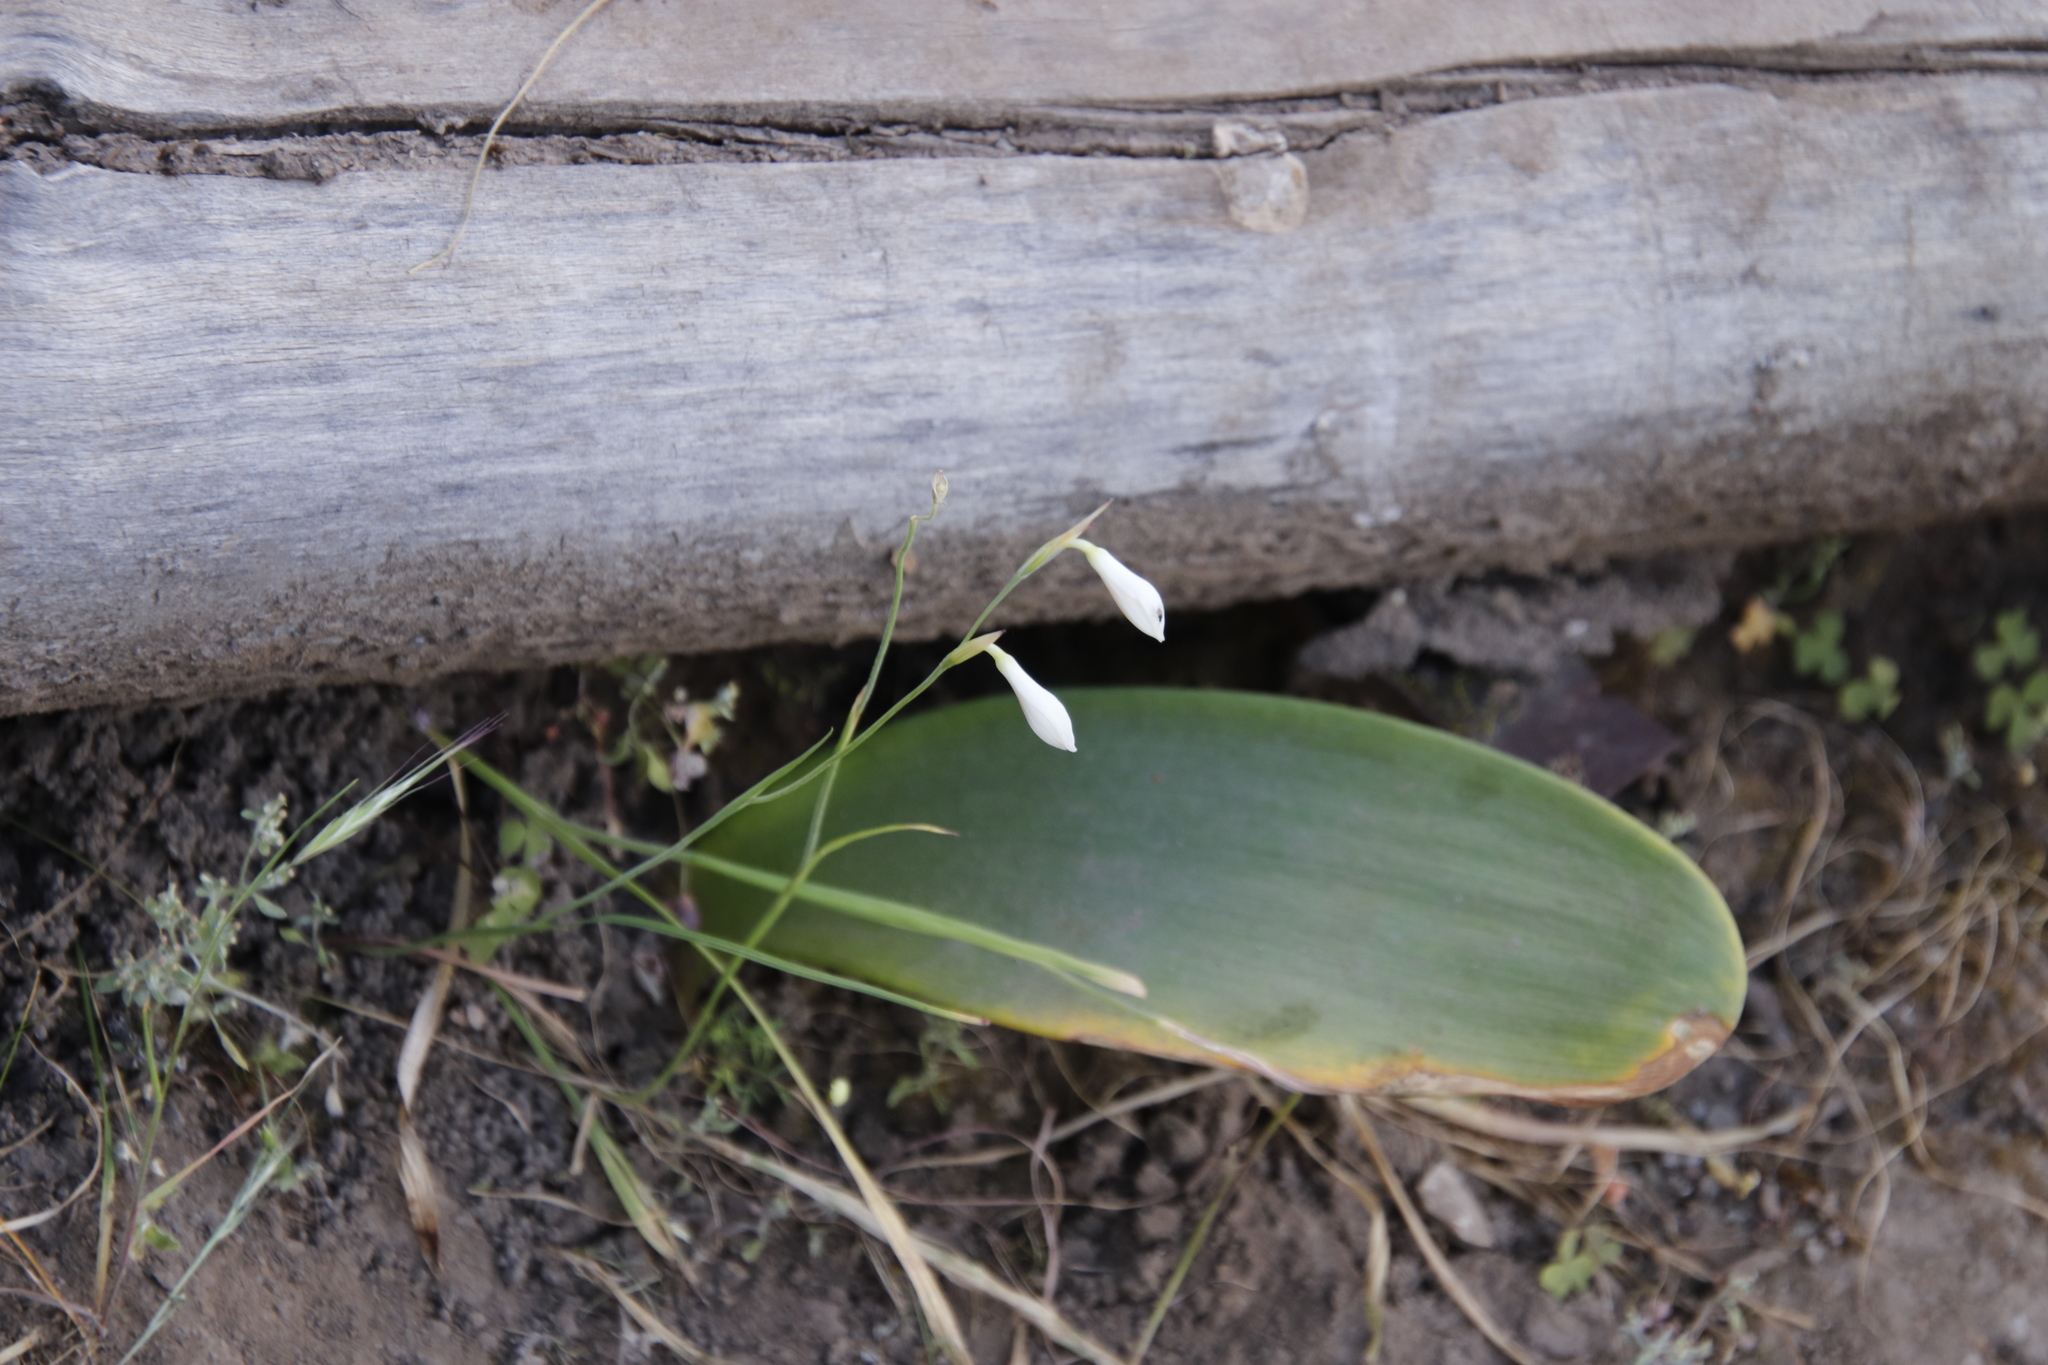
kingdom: Plantae
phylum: Tracheophyta
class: Liliopsida
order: Asparagales
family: Iridaceae
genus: Hesperantha
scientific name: Hesperantha bachmannii
